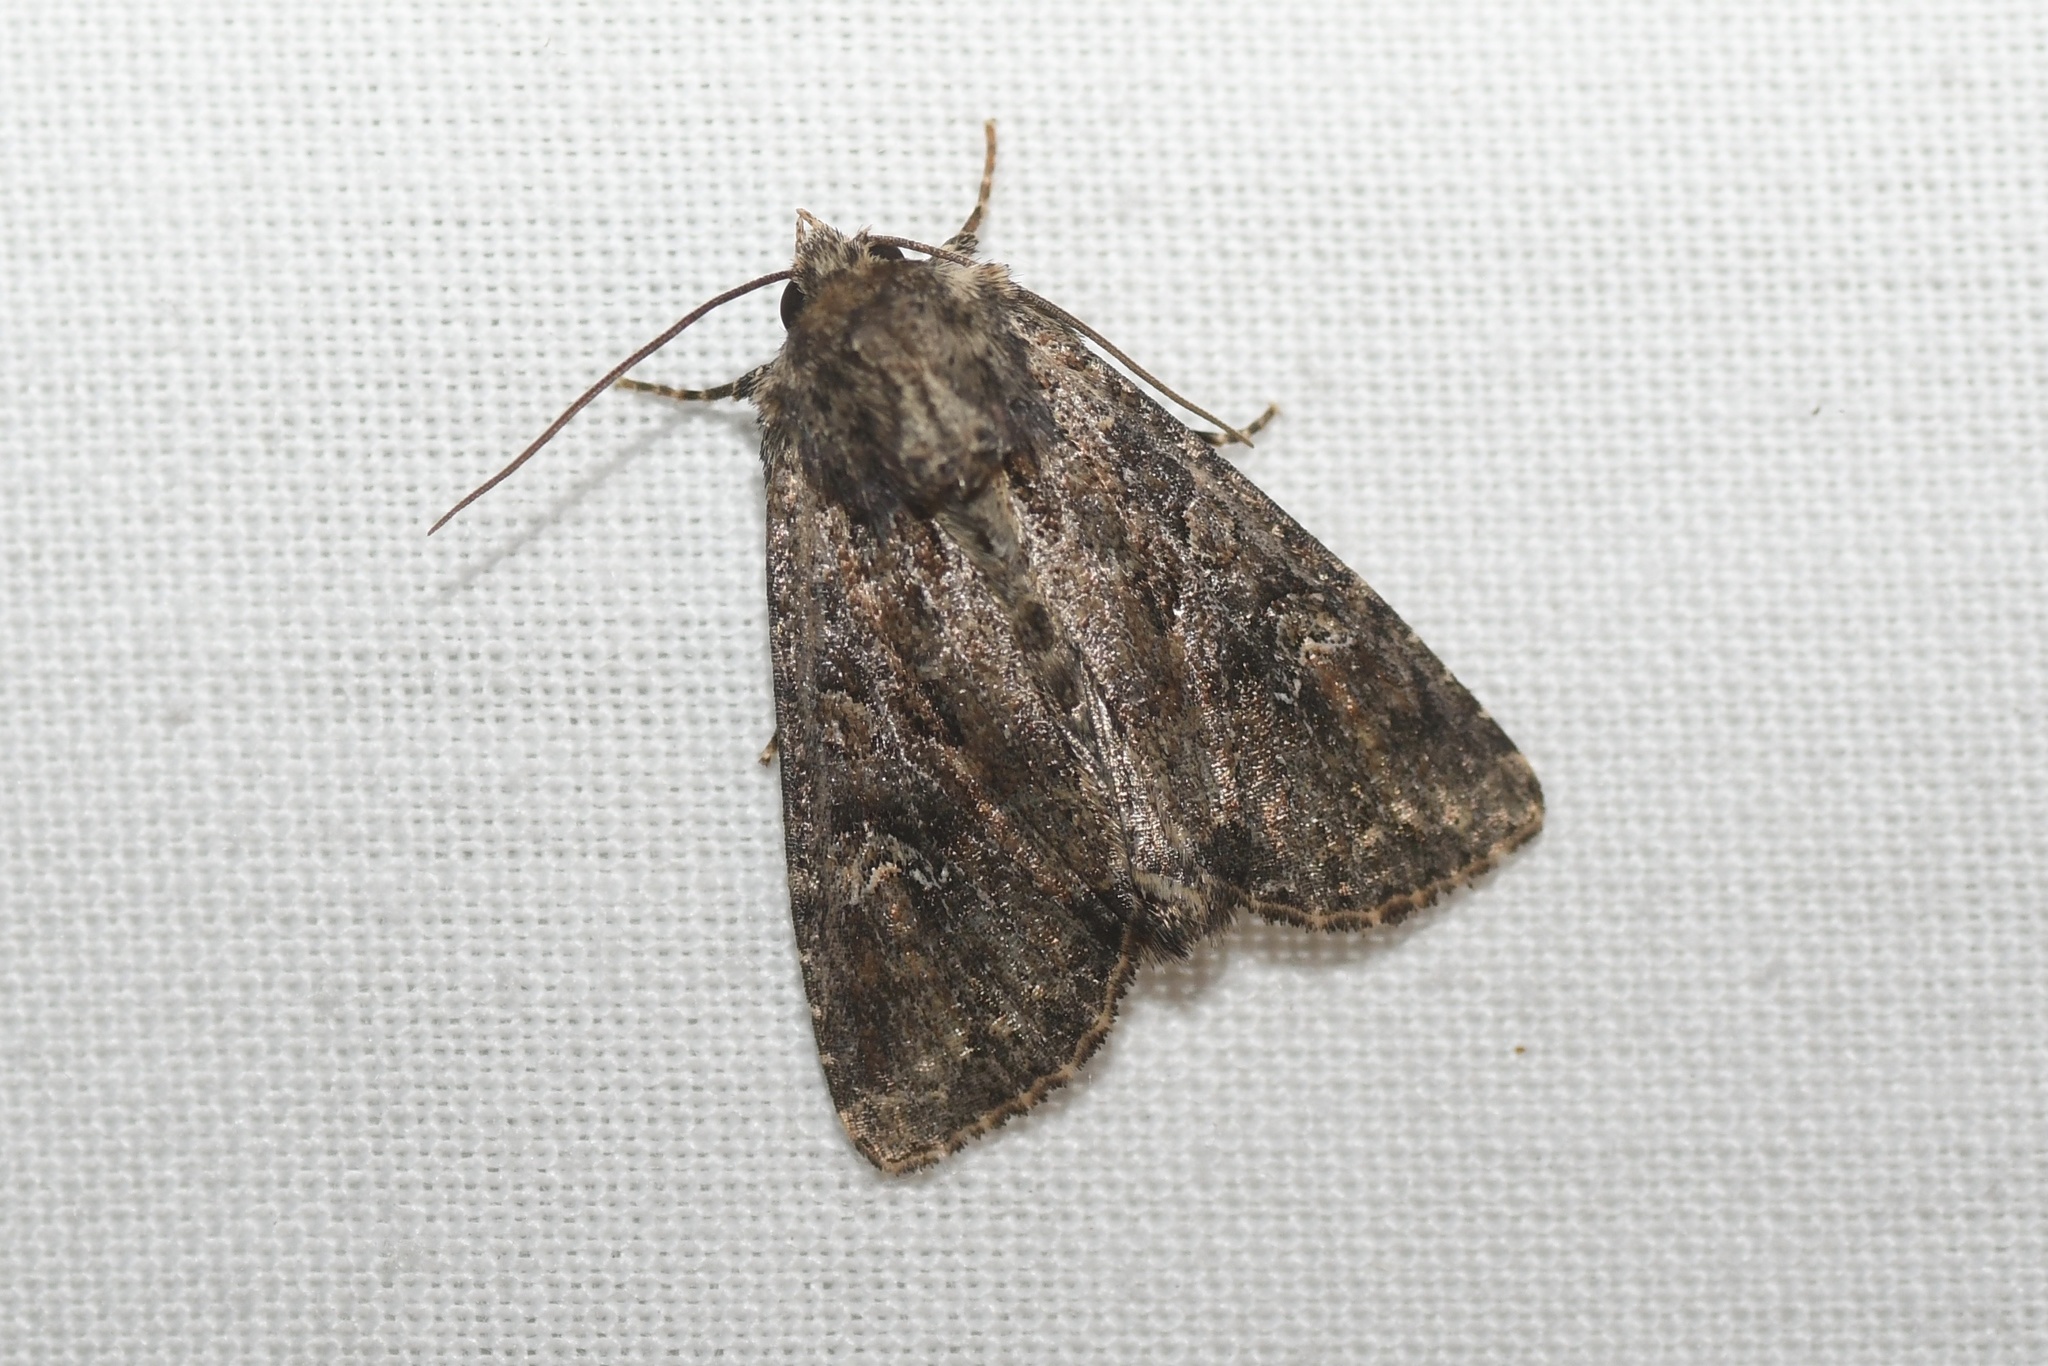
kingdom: Animalia
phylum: Arthropoda
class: Insecta
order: Lepidoptera
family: Noctuidae
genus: Apamea
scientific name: Apamea unanimis
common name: Small clouded brindle
